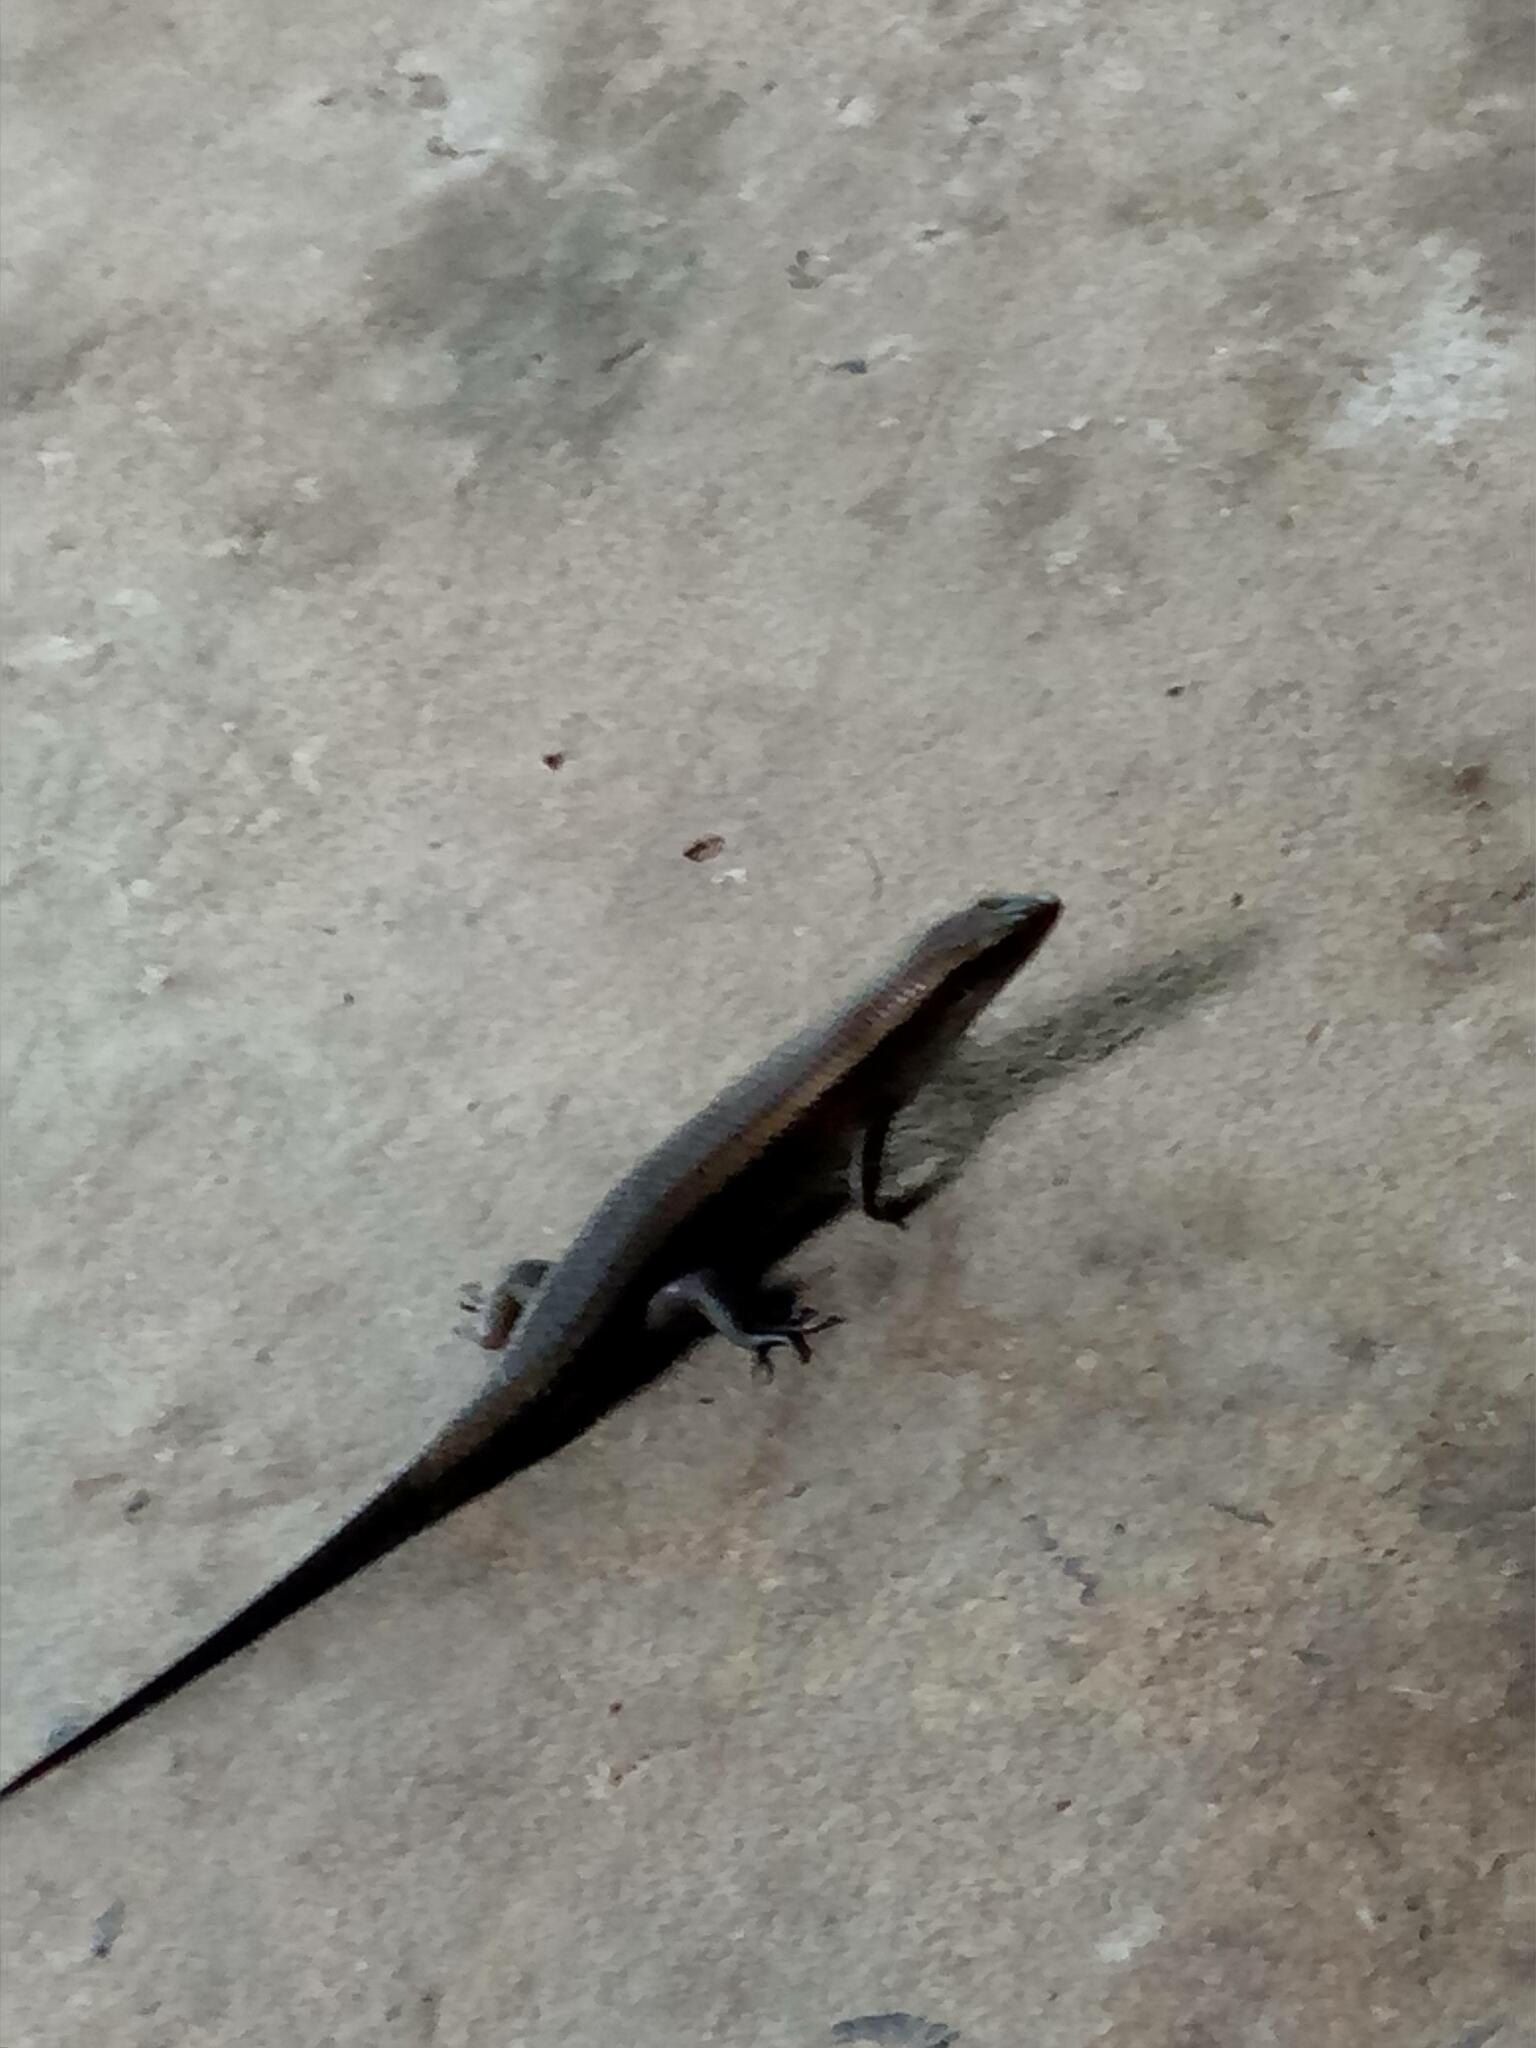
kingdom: Animalia
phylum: Chordata
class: Squamata
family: Scincidae
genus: Eutropis
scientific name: Eutropis multifasciata
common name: Common mabuya
